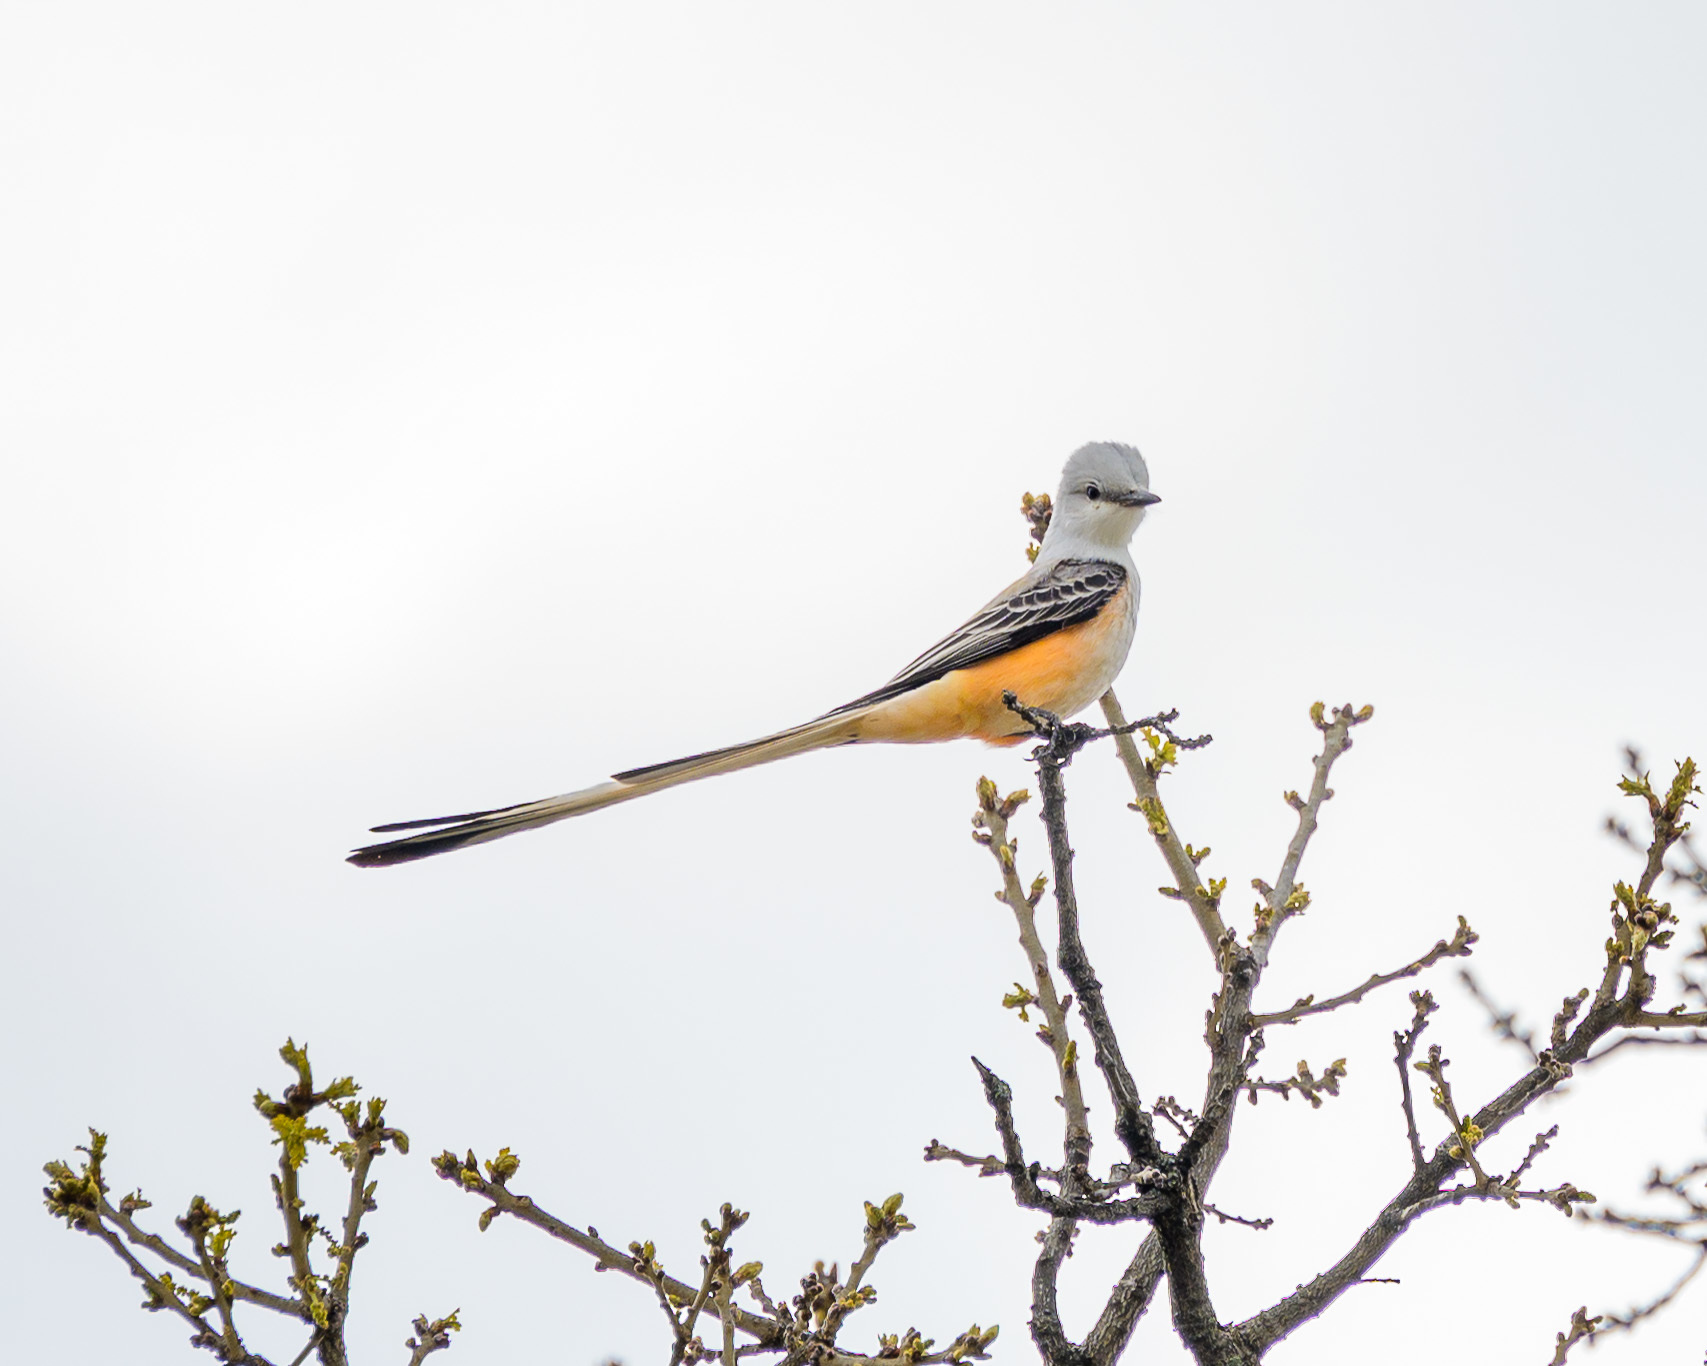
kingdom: Animalia
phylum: Chordata
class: Aves
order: Passeriformes
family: Tyrannidae
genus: Tyrannus
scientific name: Tyrannus forficatus
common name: Scissor-tailed flycatcher
